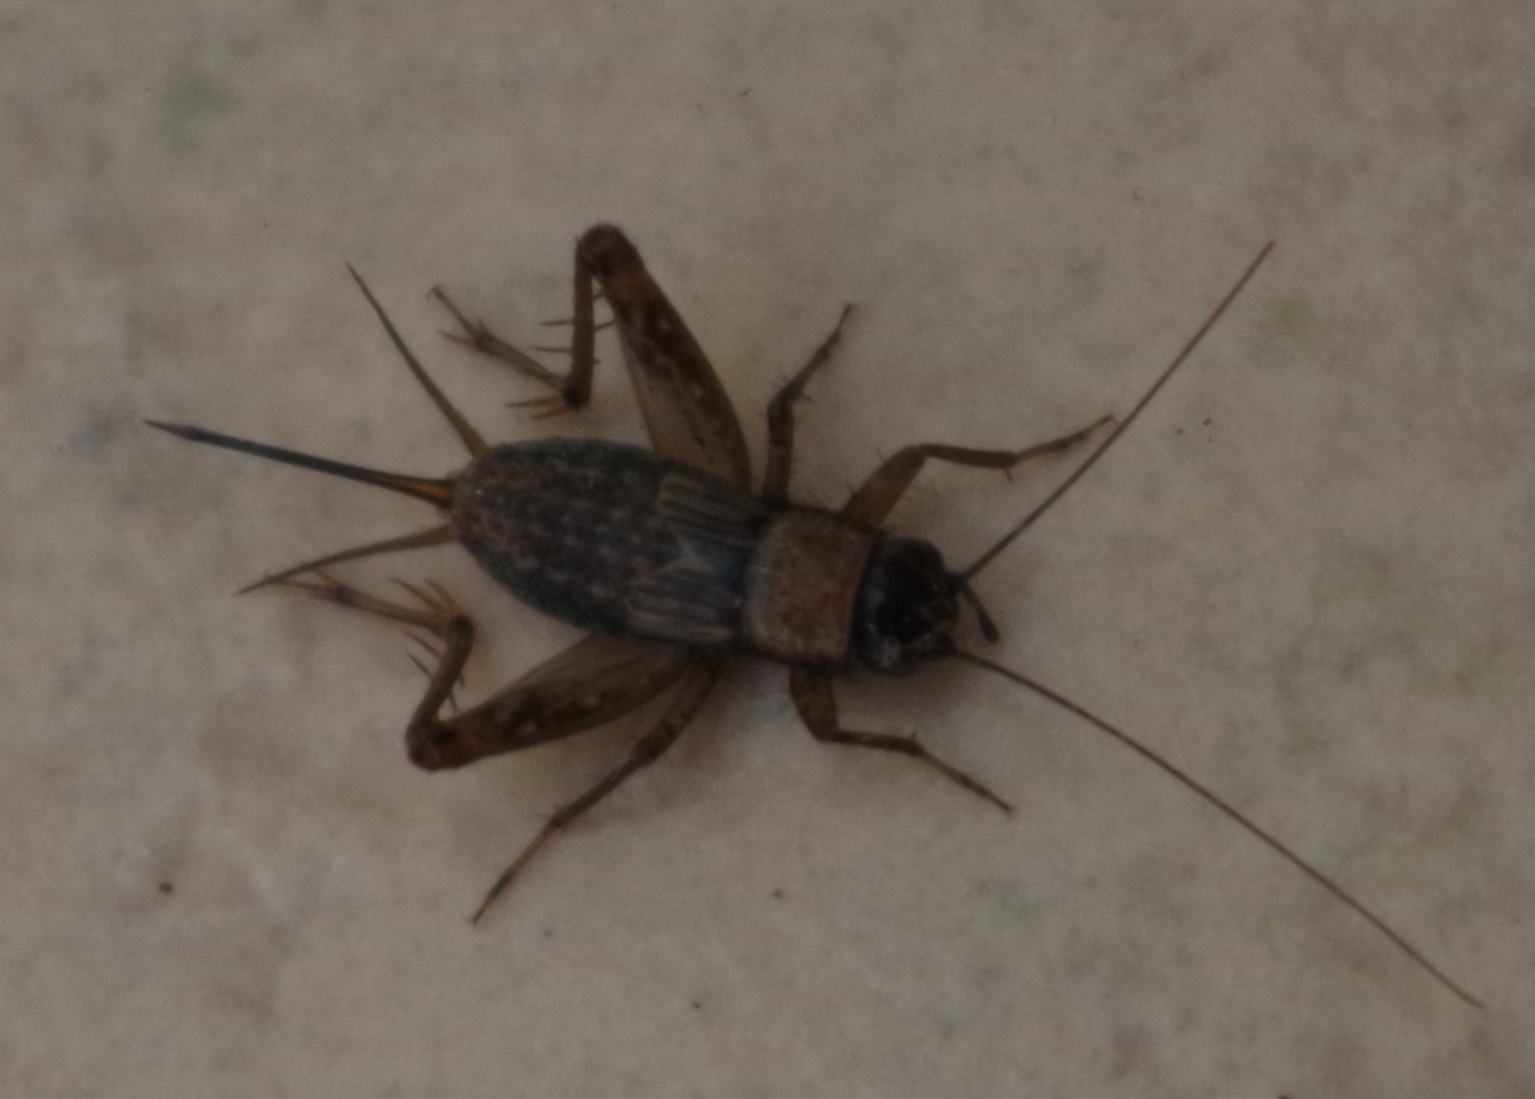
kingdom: Animalia
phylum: Arthropoda
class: Insecta
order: Orthoptera
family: Trigonidiidae
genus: Nemobius
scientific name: Nemobius sylvestris
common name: Wood-cricket
